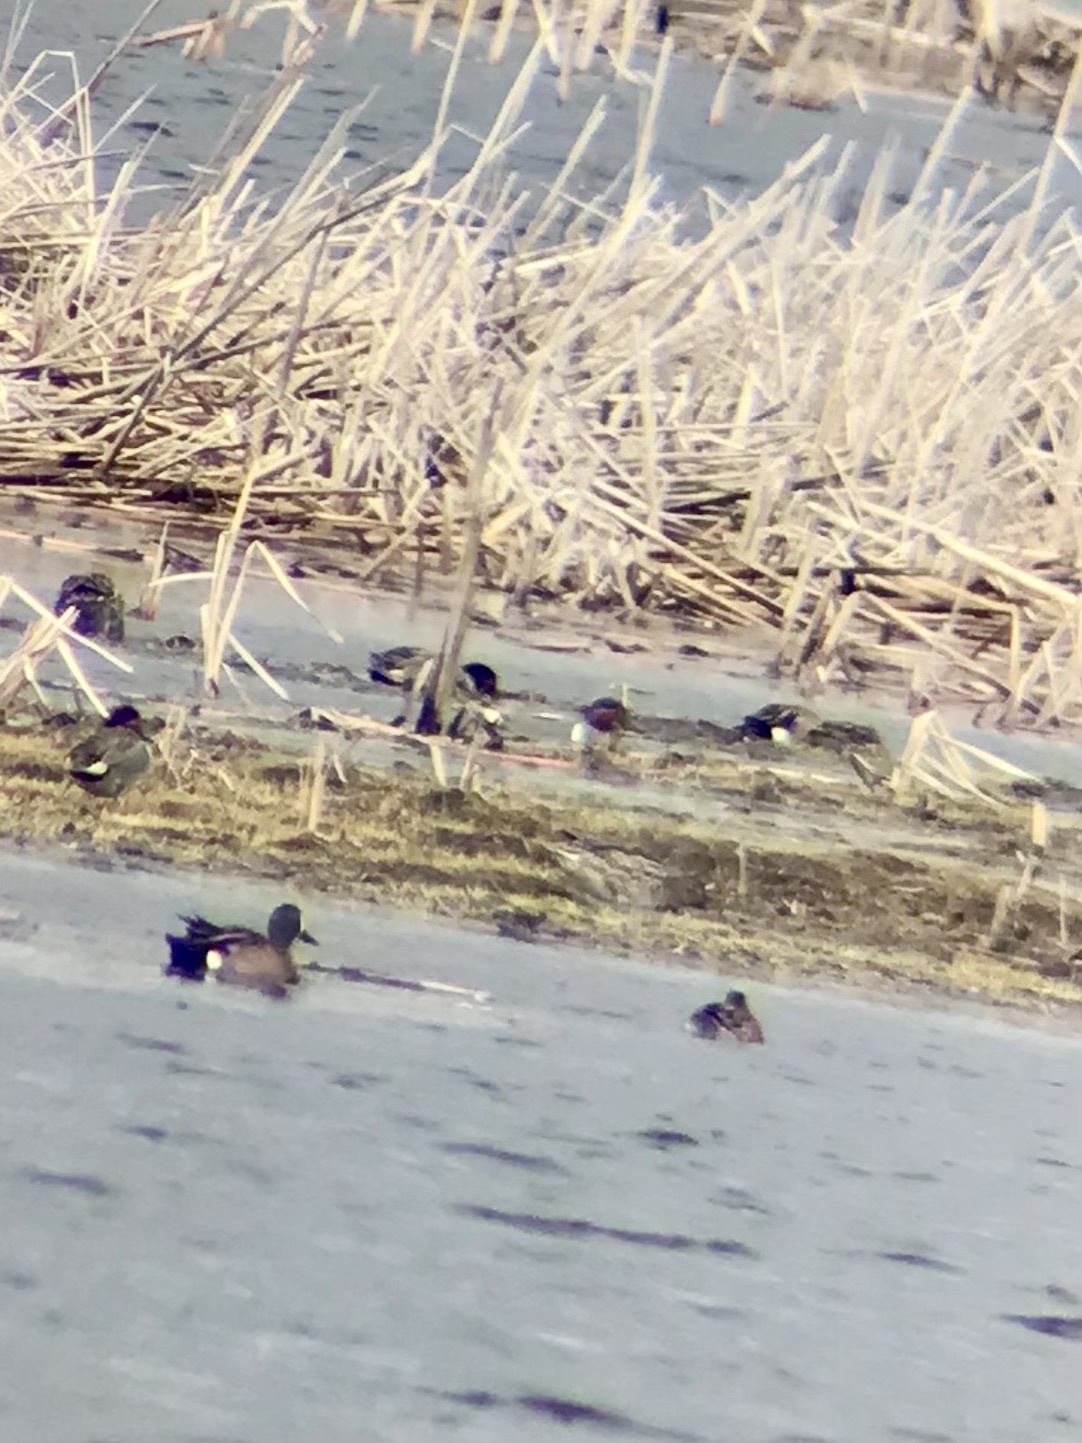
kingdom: Animalia
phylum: Chordata
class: Aves
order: Anseriformes
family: Anatidae
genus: Anas
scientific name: Anas
